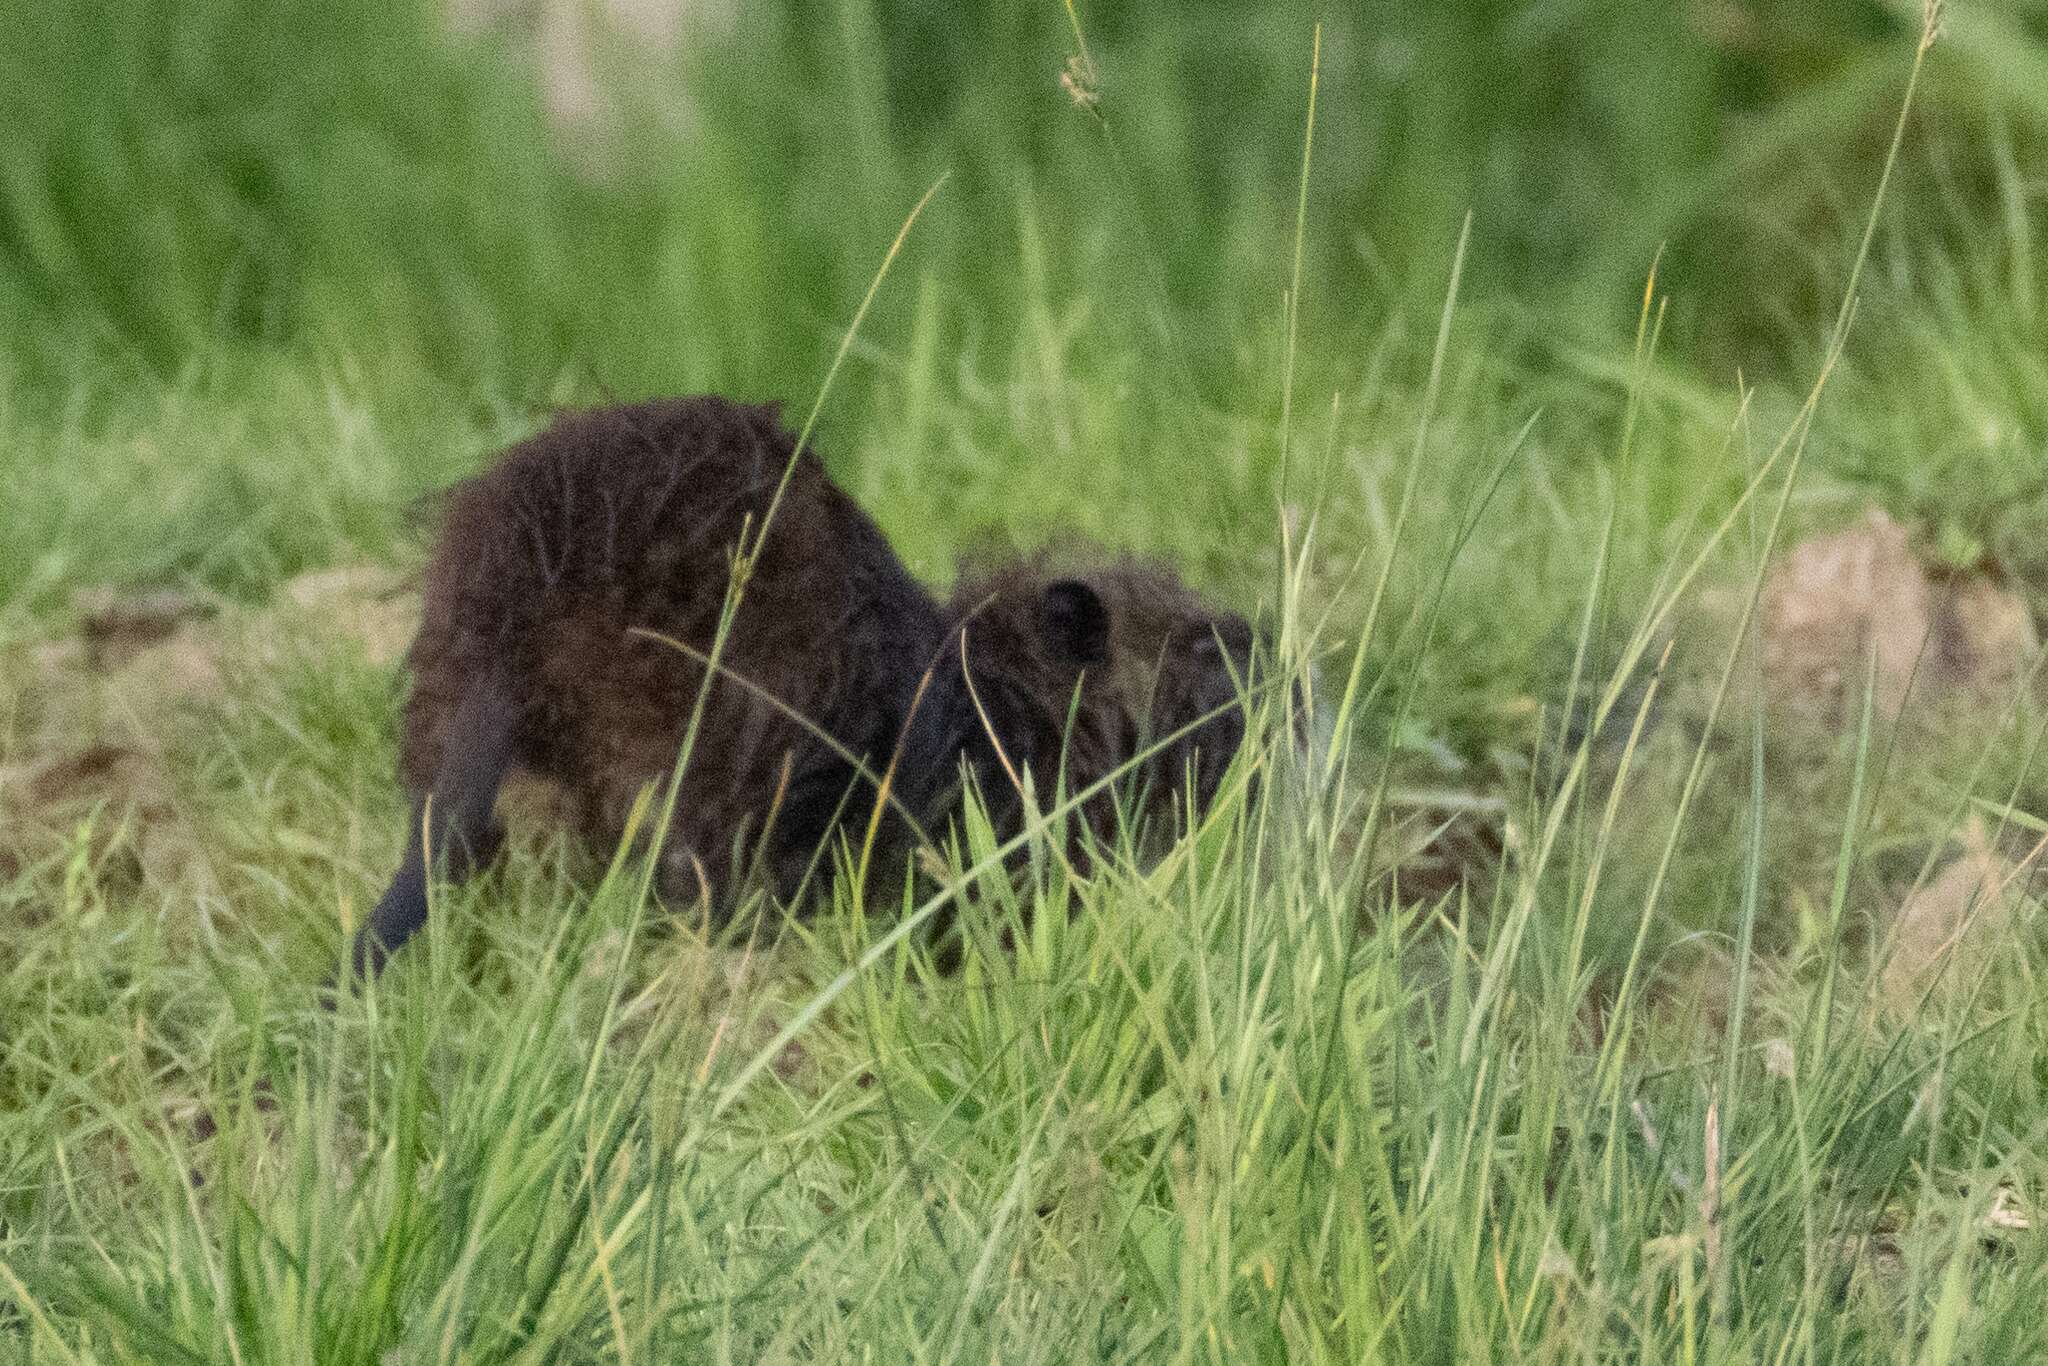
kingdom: Animalia
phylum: Chordata
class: Mammalia
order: Rodentia
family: Myocastoridae
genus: Myocastor
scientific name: Myocastor coypus
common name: Coypu
